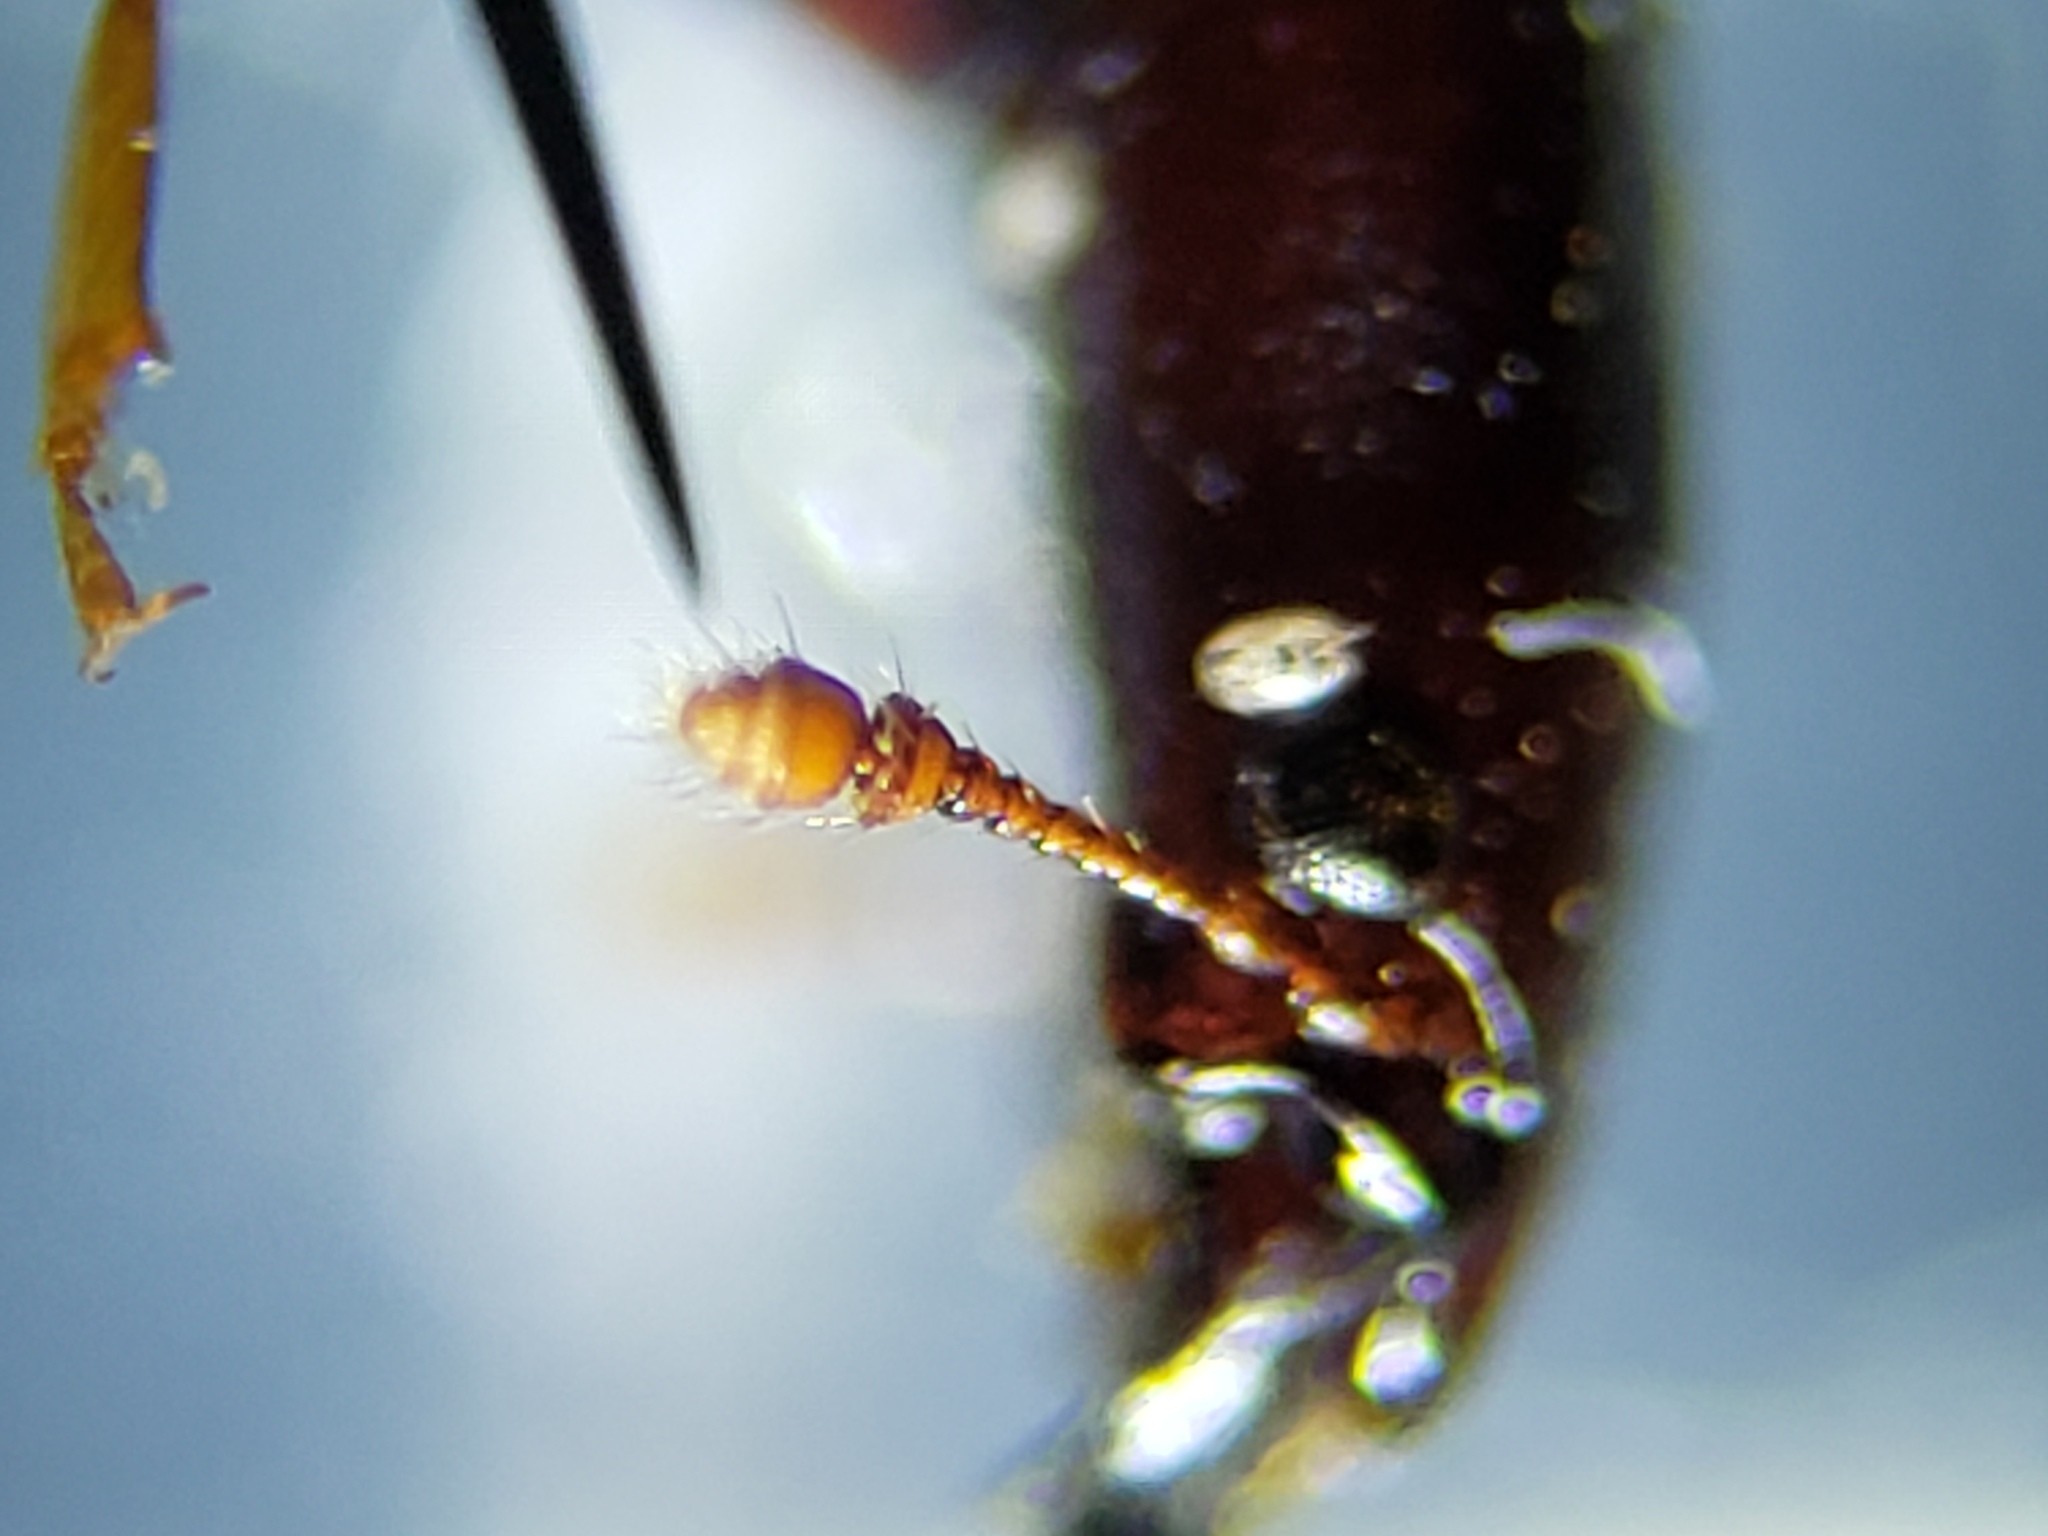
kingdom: Animalia
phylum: Arthropoda
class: Insecta
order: Coleoptera
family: Monotomidae
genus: Thione
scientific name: Thione championi
